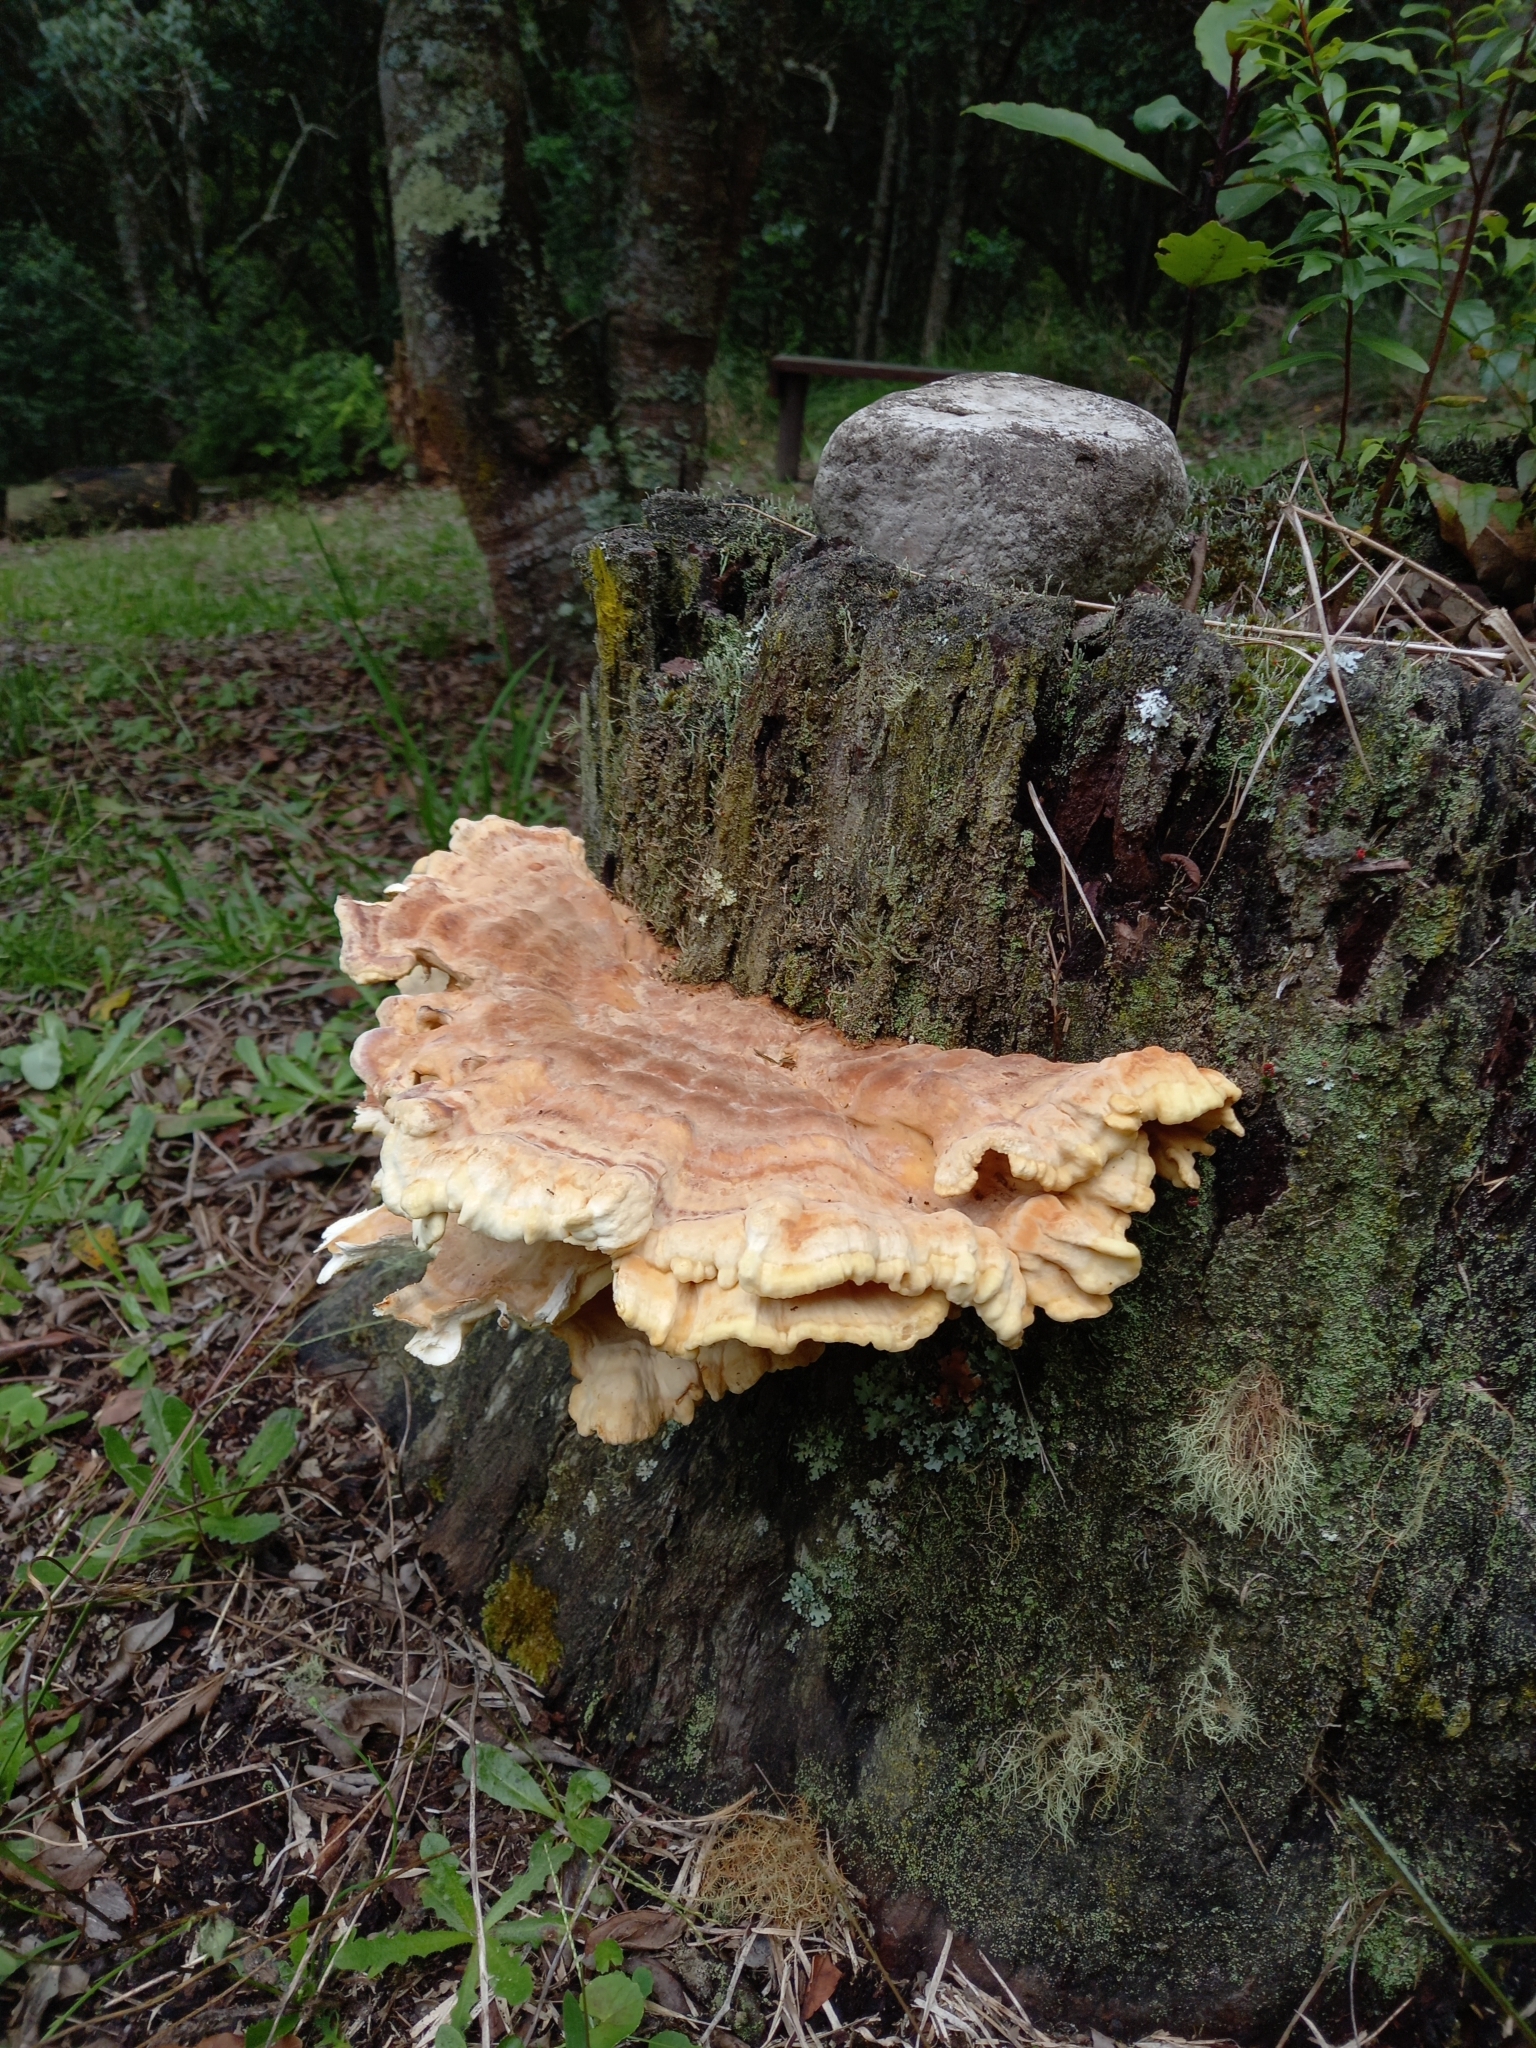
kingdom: Fungi
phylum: Basidiomycota
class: Agaricomycetes
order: Polyporales
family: Laetiporaceae
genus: Laetiporus
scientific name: Laetiporus sulphureus
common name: Chicken of the woods
